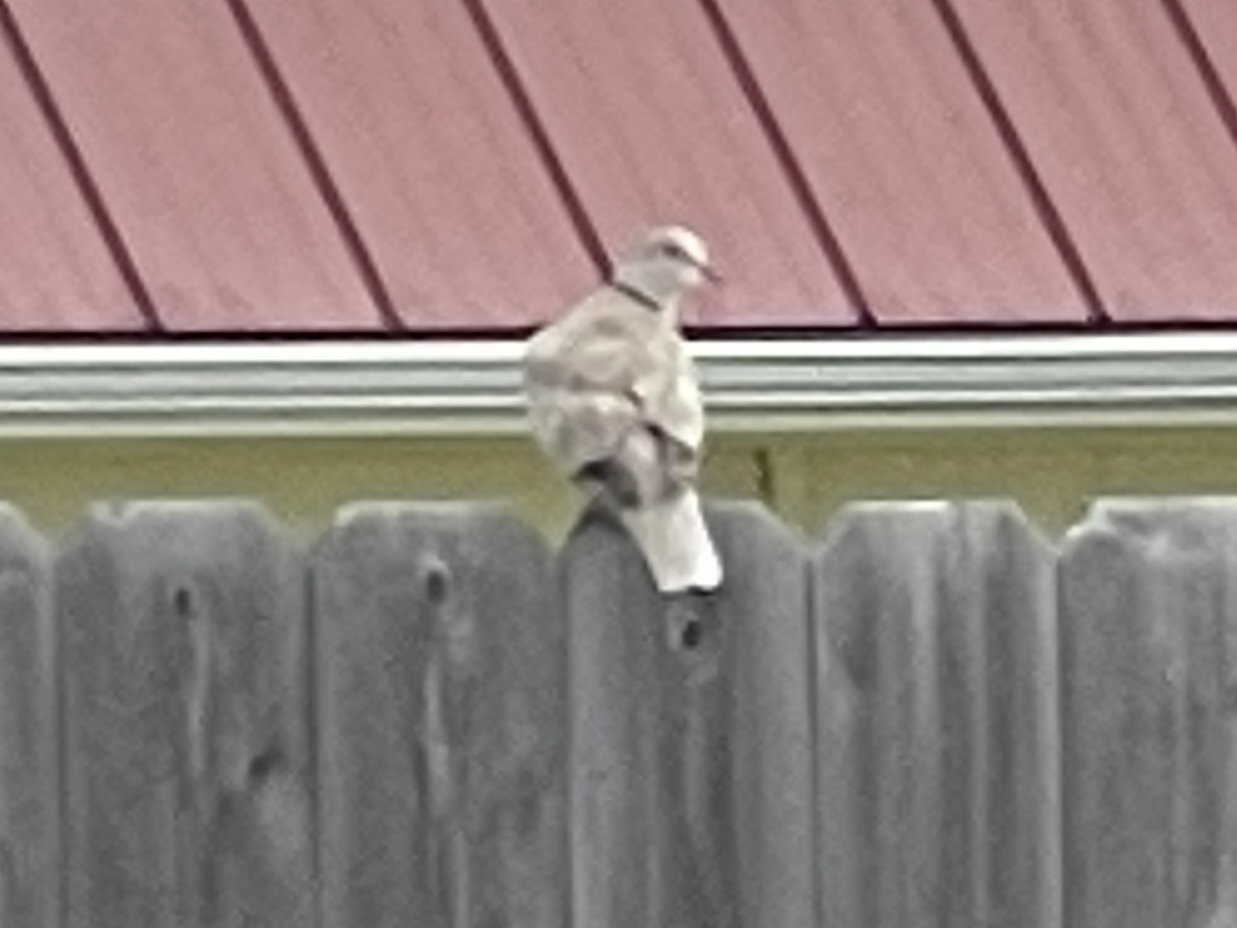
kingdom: Animalia
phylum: Chordata
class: Aves
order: Columbiformes
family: Columbidae
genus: Streptopelia
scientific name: Streptopelia decaocto
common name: Eurasian collared dove
